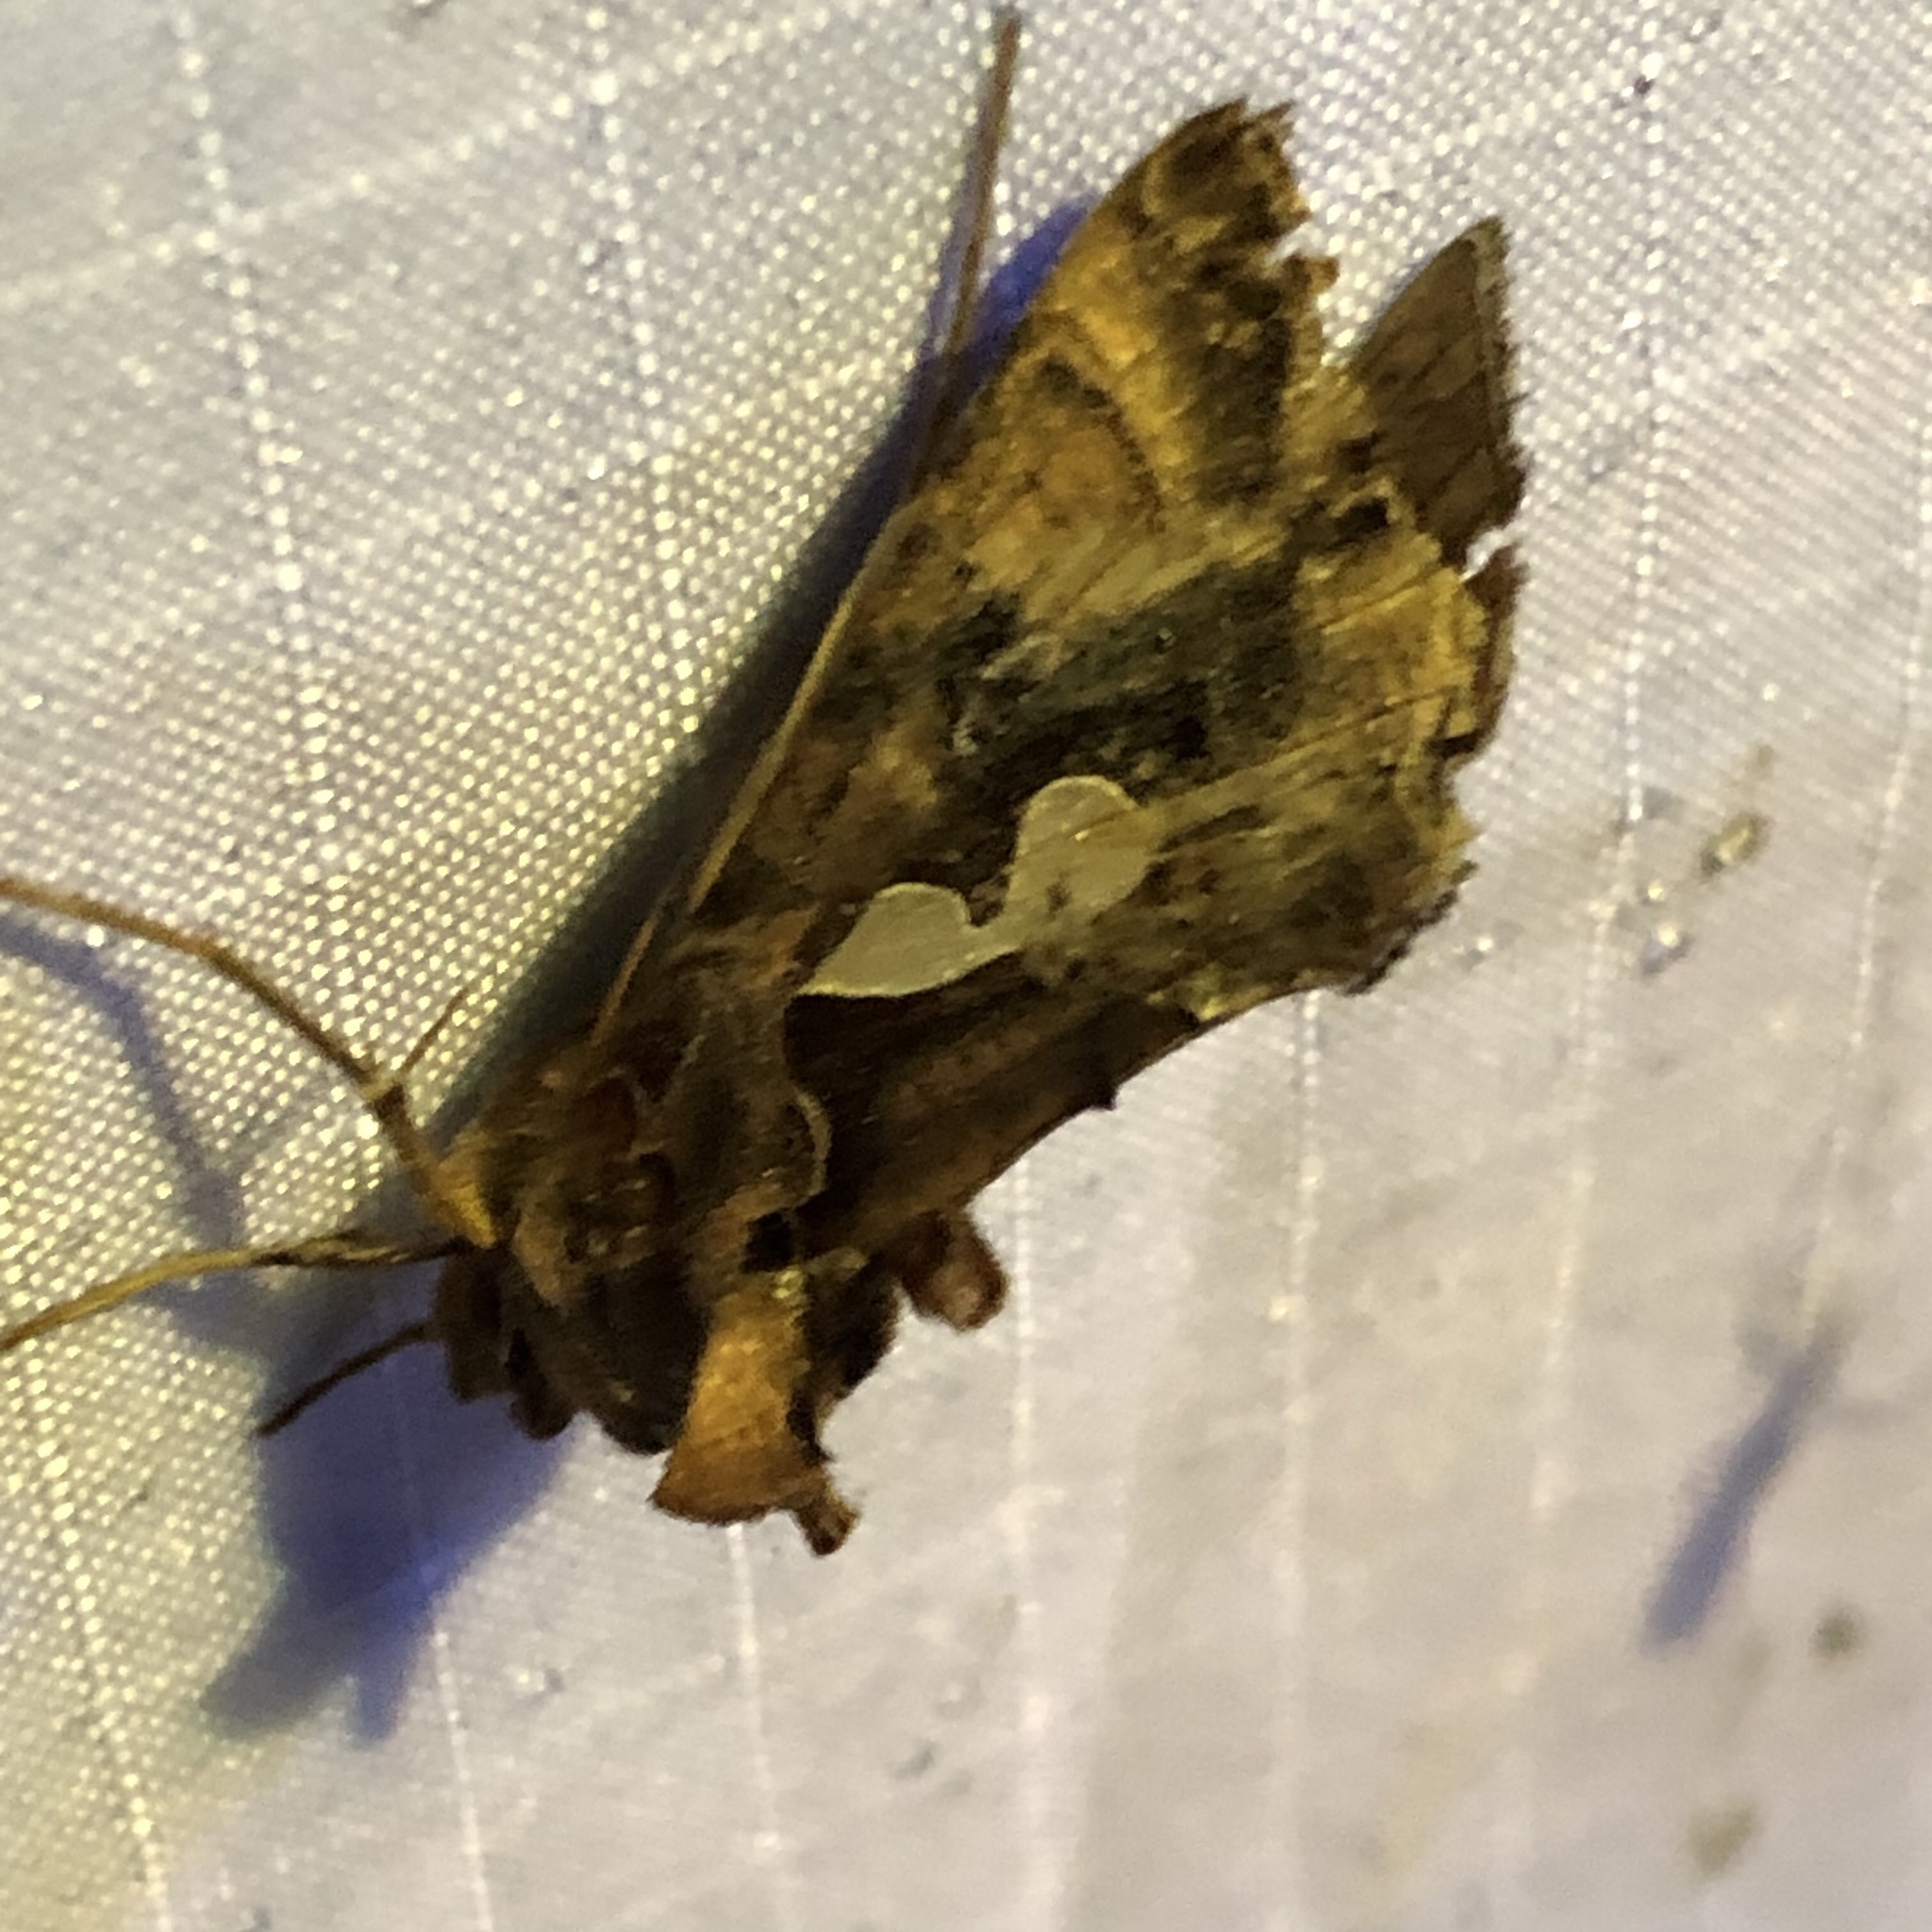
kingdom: Animalia
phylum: Arthropoda
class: Insecta
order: Lepidoptera
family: Noctuidae
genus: Megalographa
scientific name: Megalographa biloba
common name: Cutworm
